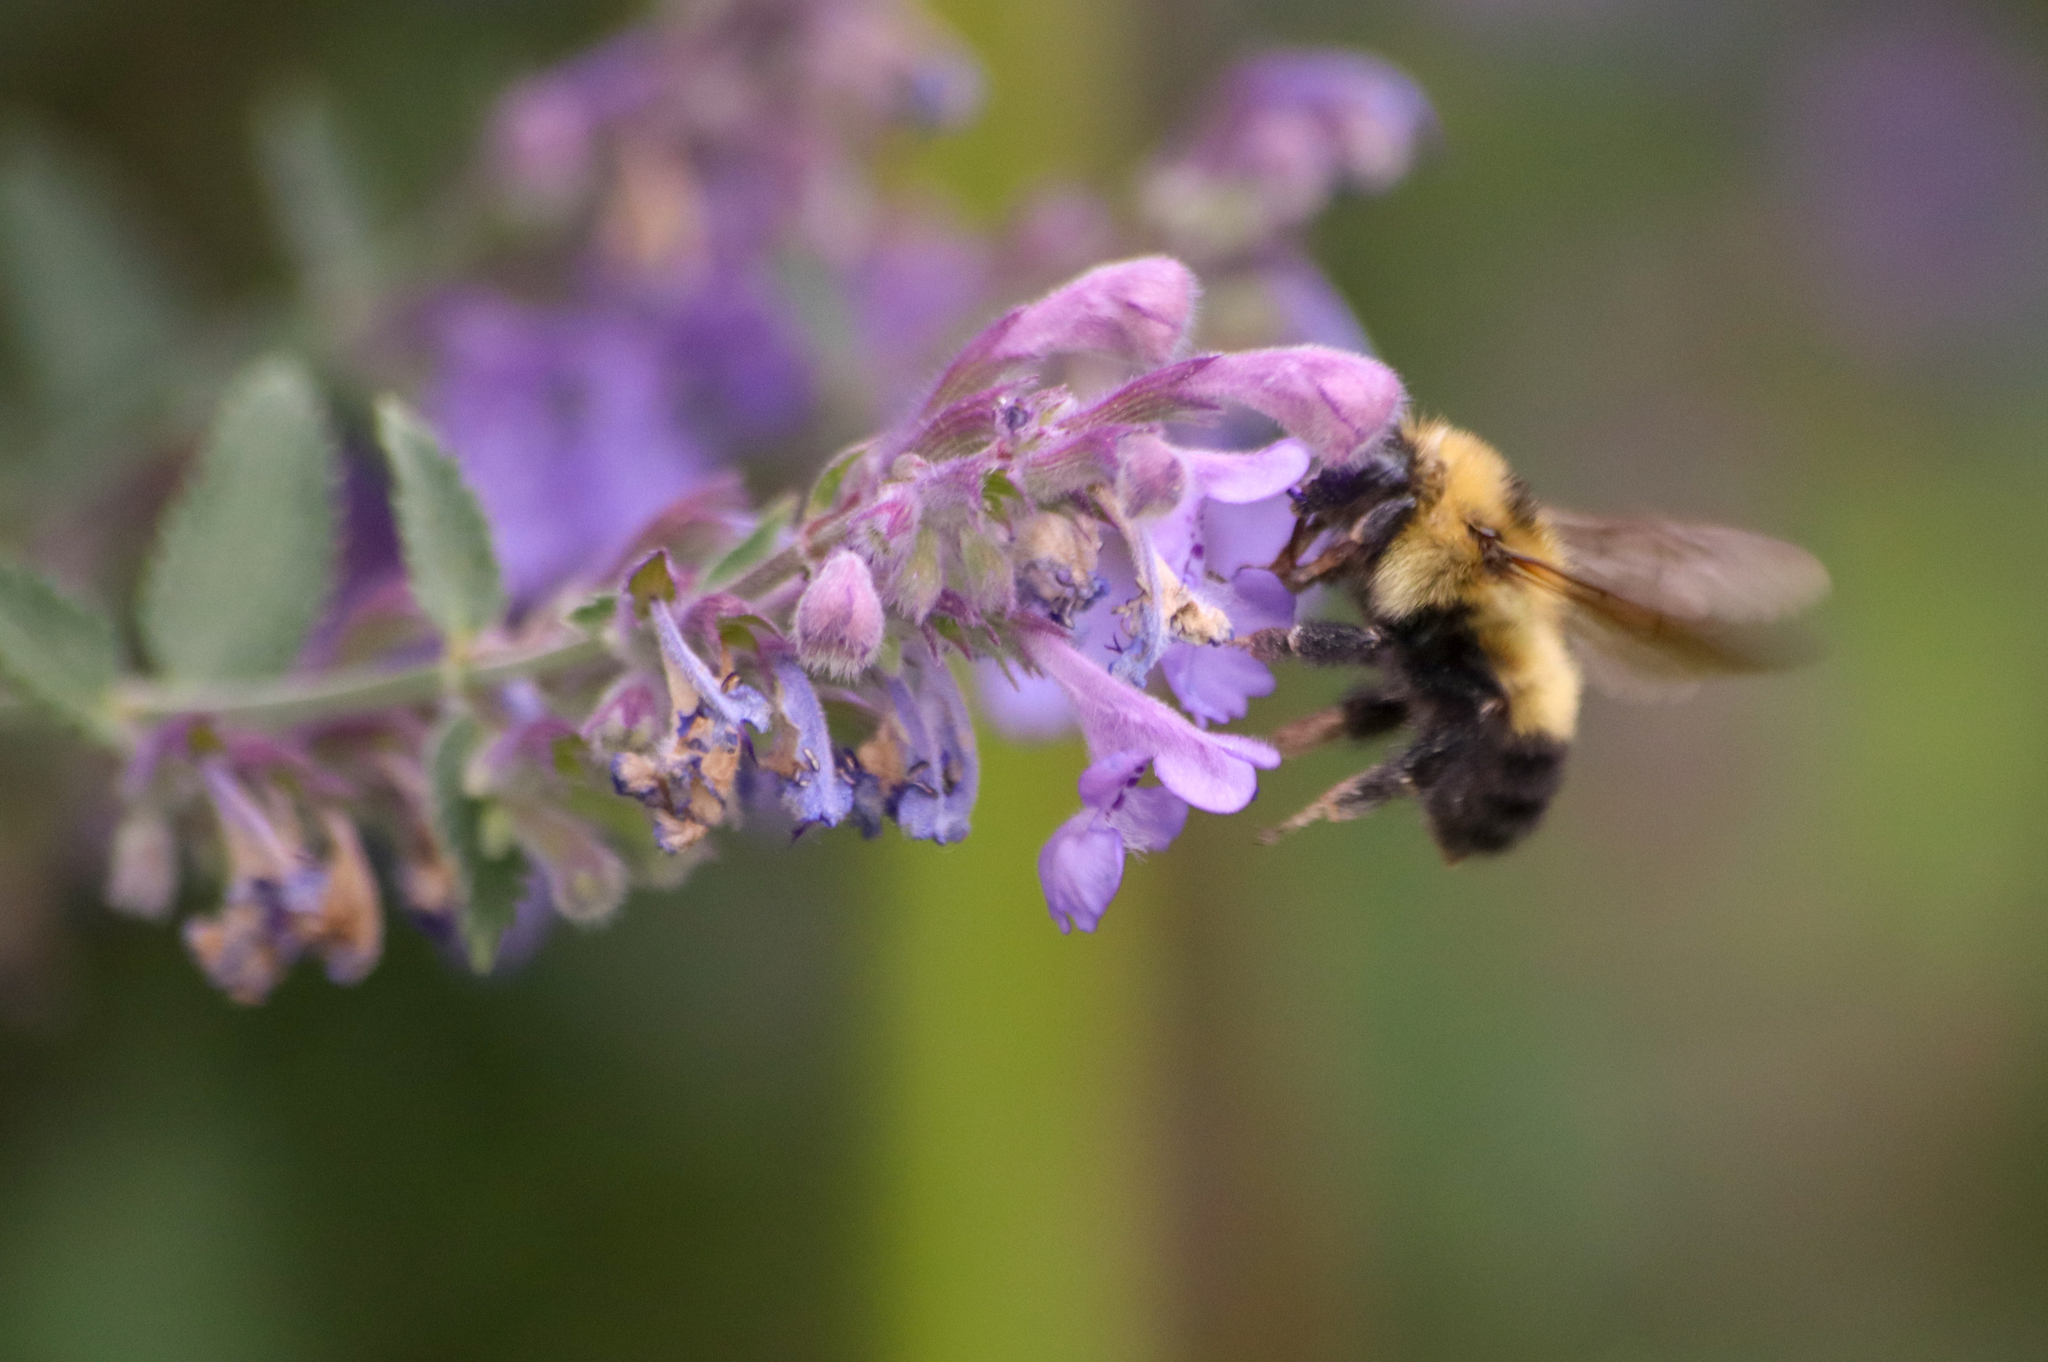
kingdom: Animalia
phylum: Arthropoda
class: Insecta
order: Hymenoptera
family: Apidae
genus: Bombus
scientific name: Bombus rufocinctus
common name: Red-belted bumble bee
